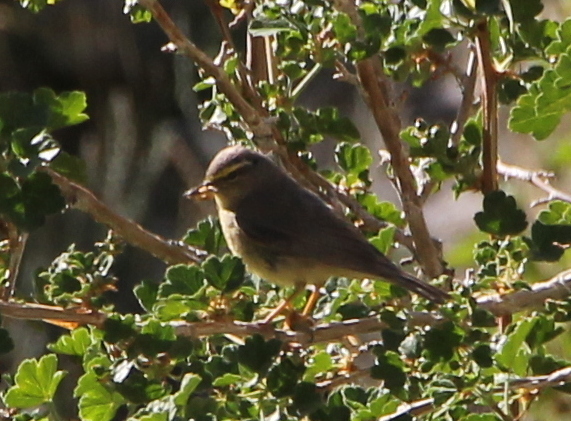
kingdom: Animalia
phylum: Chordata
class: Aves
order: Passeriformes
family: Phylloscopidae
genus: Phylloscopus
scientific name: Phylloscopus griseolus
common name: Sulphur-bellied warbler
